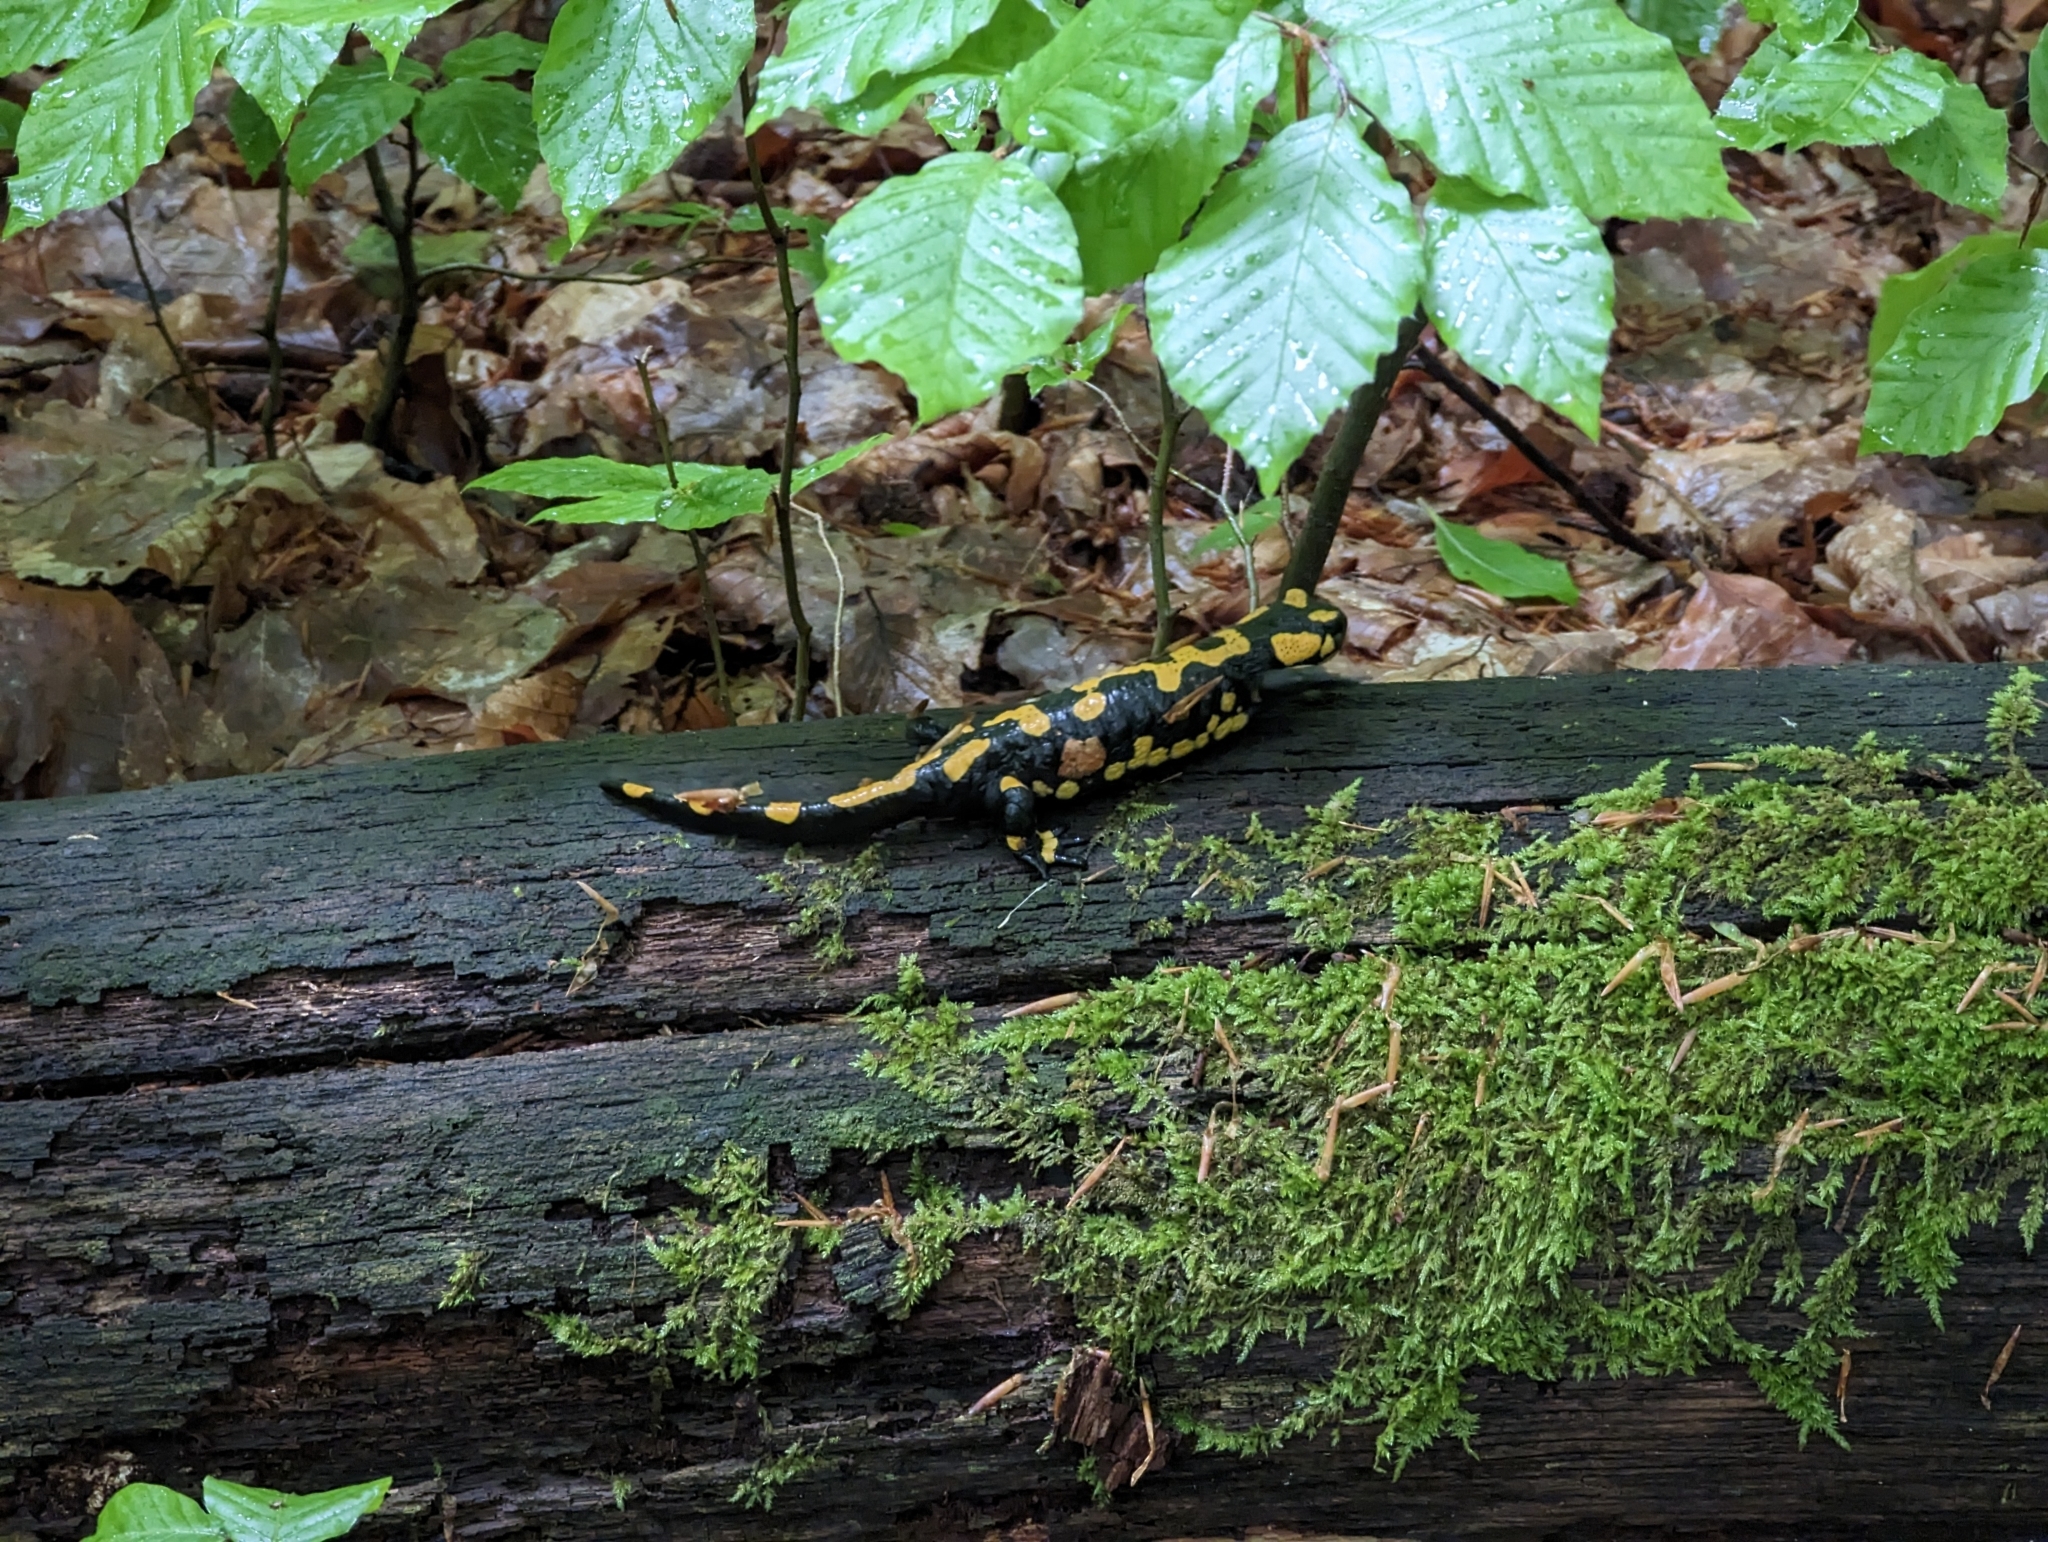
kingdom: Animalia
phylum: Chordata
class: Amphibia
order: Caudata
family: Salamandridae
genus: Salamandra
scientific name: Salamandra salamandra
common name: Fire salamander
